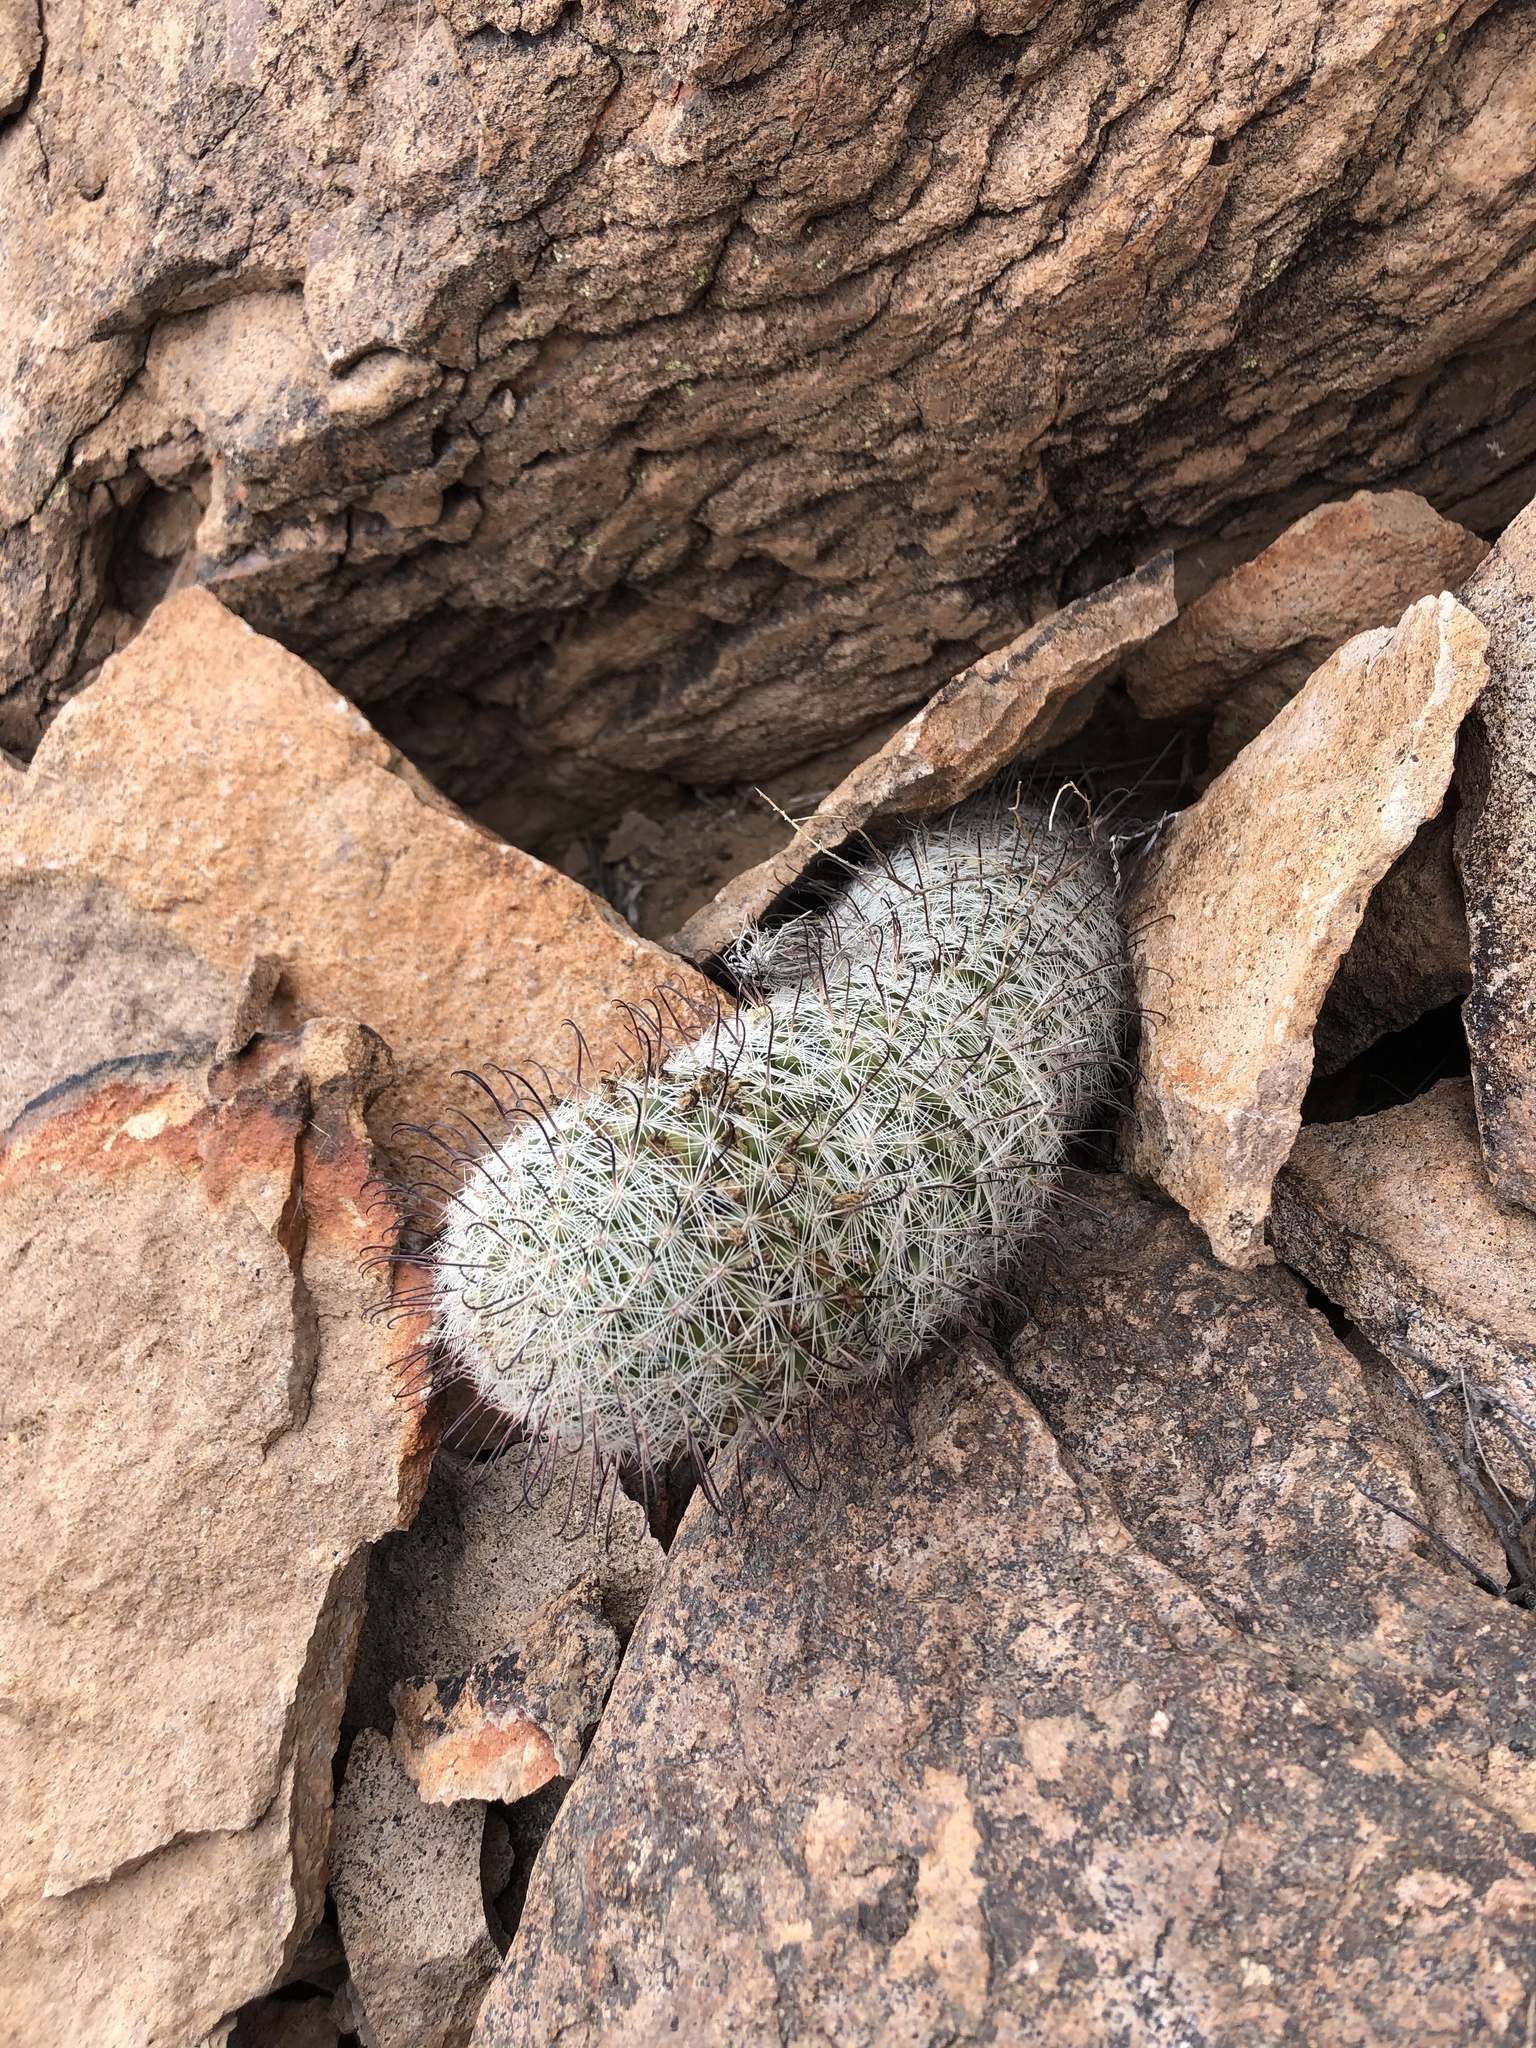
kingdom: Plantae
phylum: Tracheophyta
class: Magnoliopsida
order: Caryophyllales
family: Cactaceae
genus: Cochemiea
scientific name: Cochemiea grahamii
